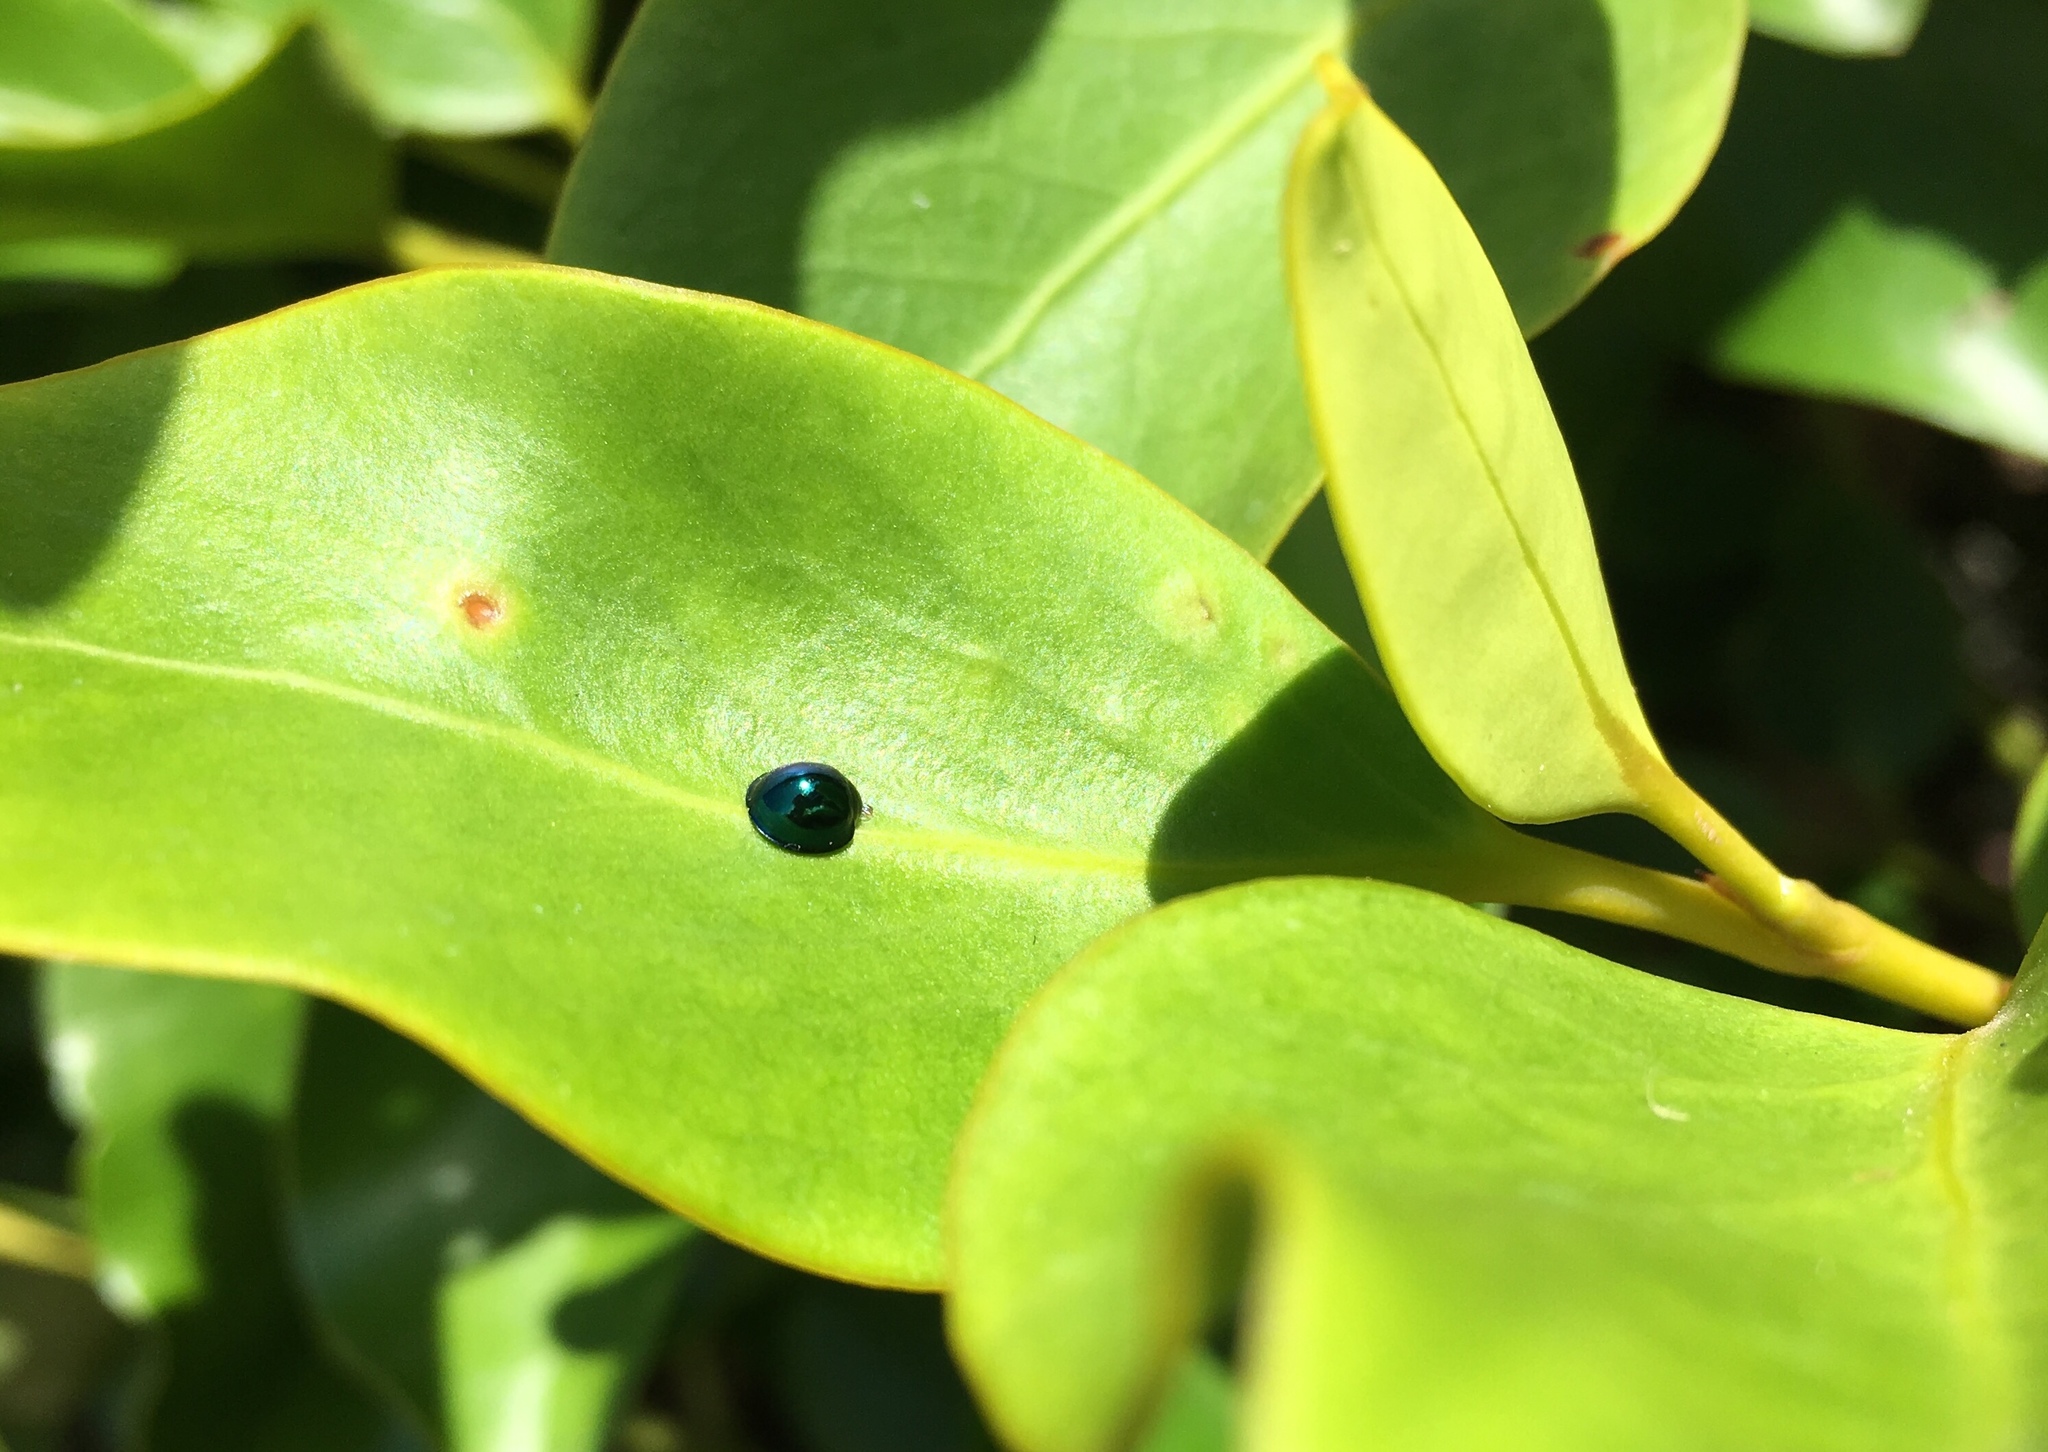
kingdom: Animalia
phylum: Arthropoda
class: Insecta
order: Coleoptera
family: Coccinellidae
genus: Halmus
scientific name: Halmus chalybeus
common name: Steel blue ladybird beetle
